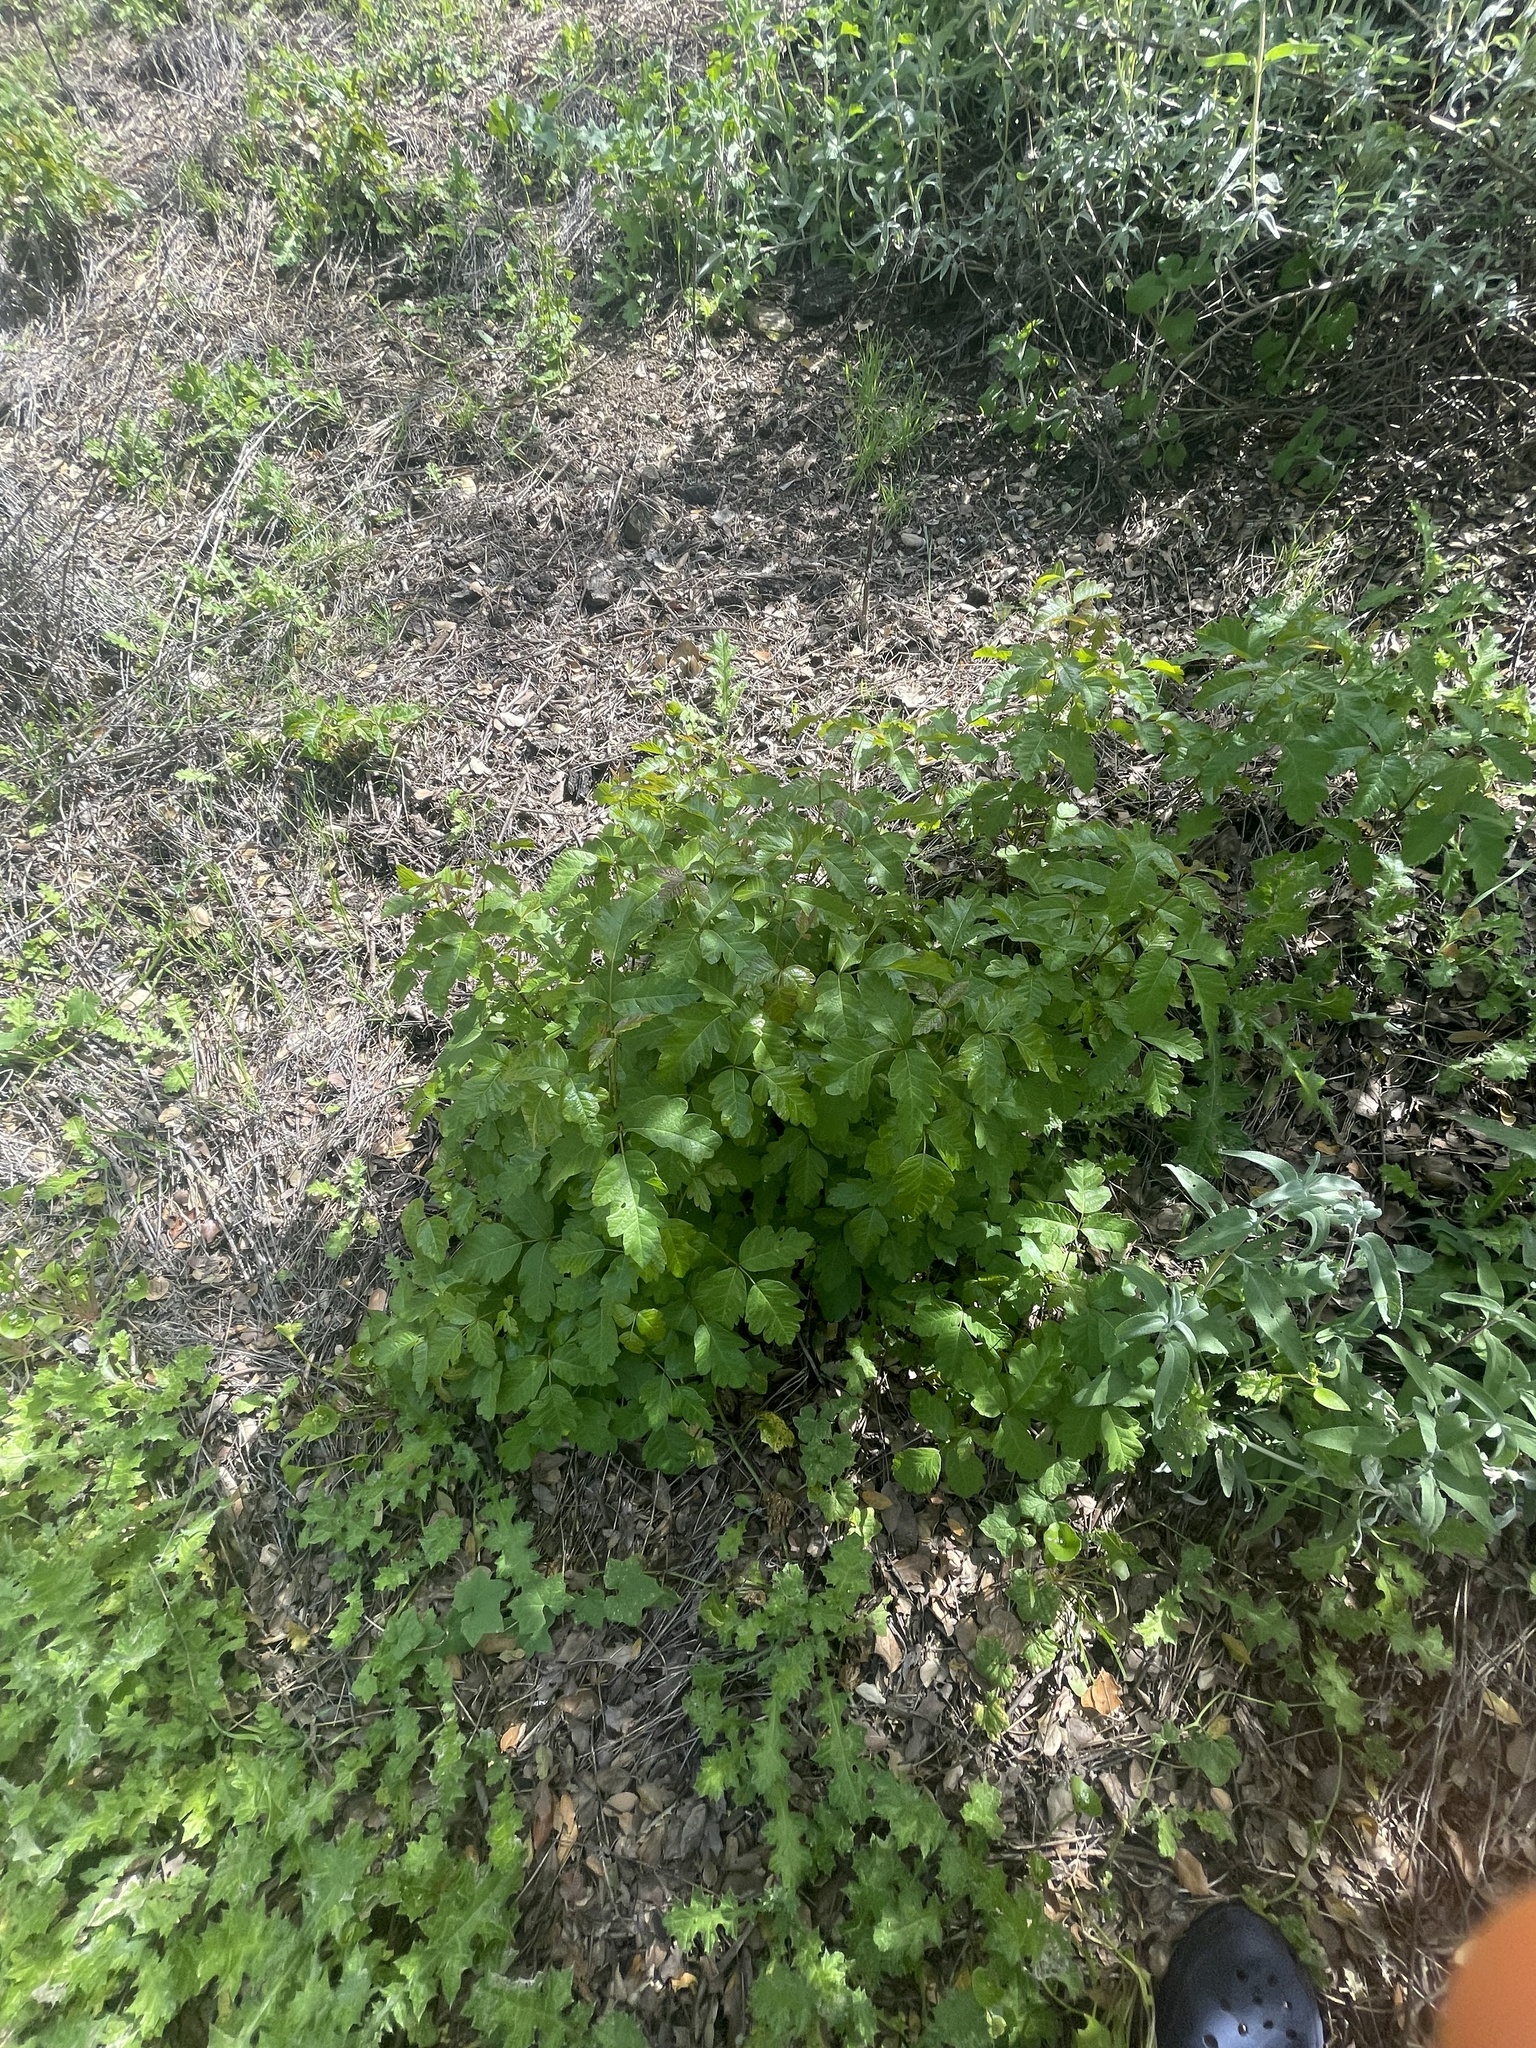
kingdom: Plantae
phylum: Tracheophyta
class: Magnoliopsida
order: Sapindales
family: Anacardiaceae
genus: Toxicodendron
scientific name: Toxicodendron diversilobum
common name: Pacific poison-oak
